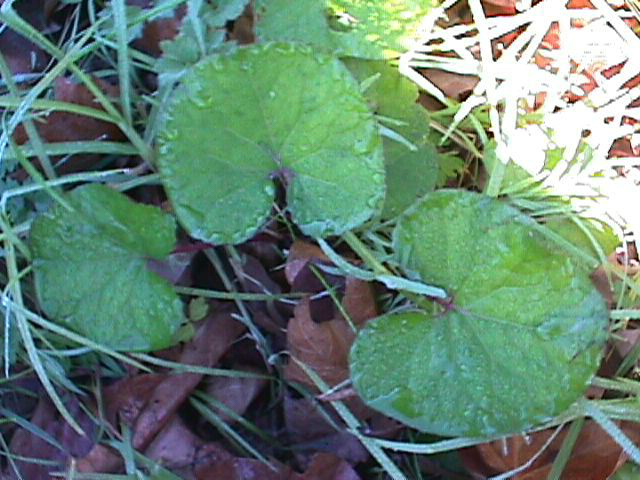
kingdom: Plantae
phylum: Tracheophyta
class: Magnoliopsida
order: Asterales
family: Asteraceae
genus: Petasites
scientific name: Petasites pyrenaicus
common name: Winter heliotrope
